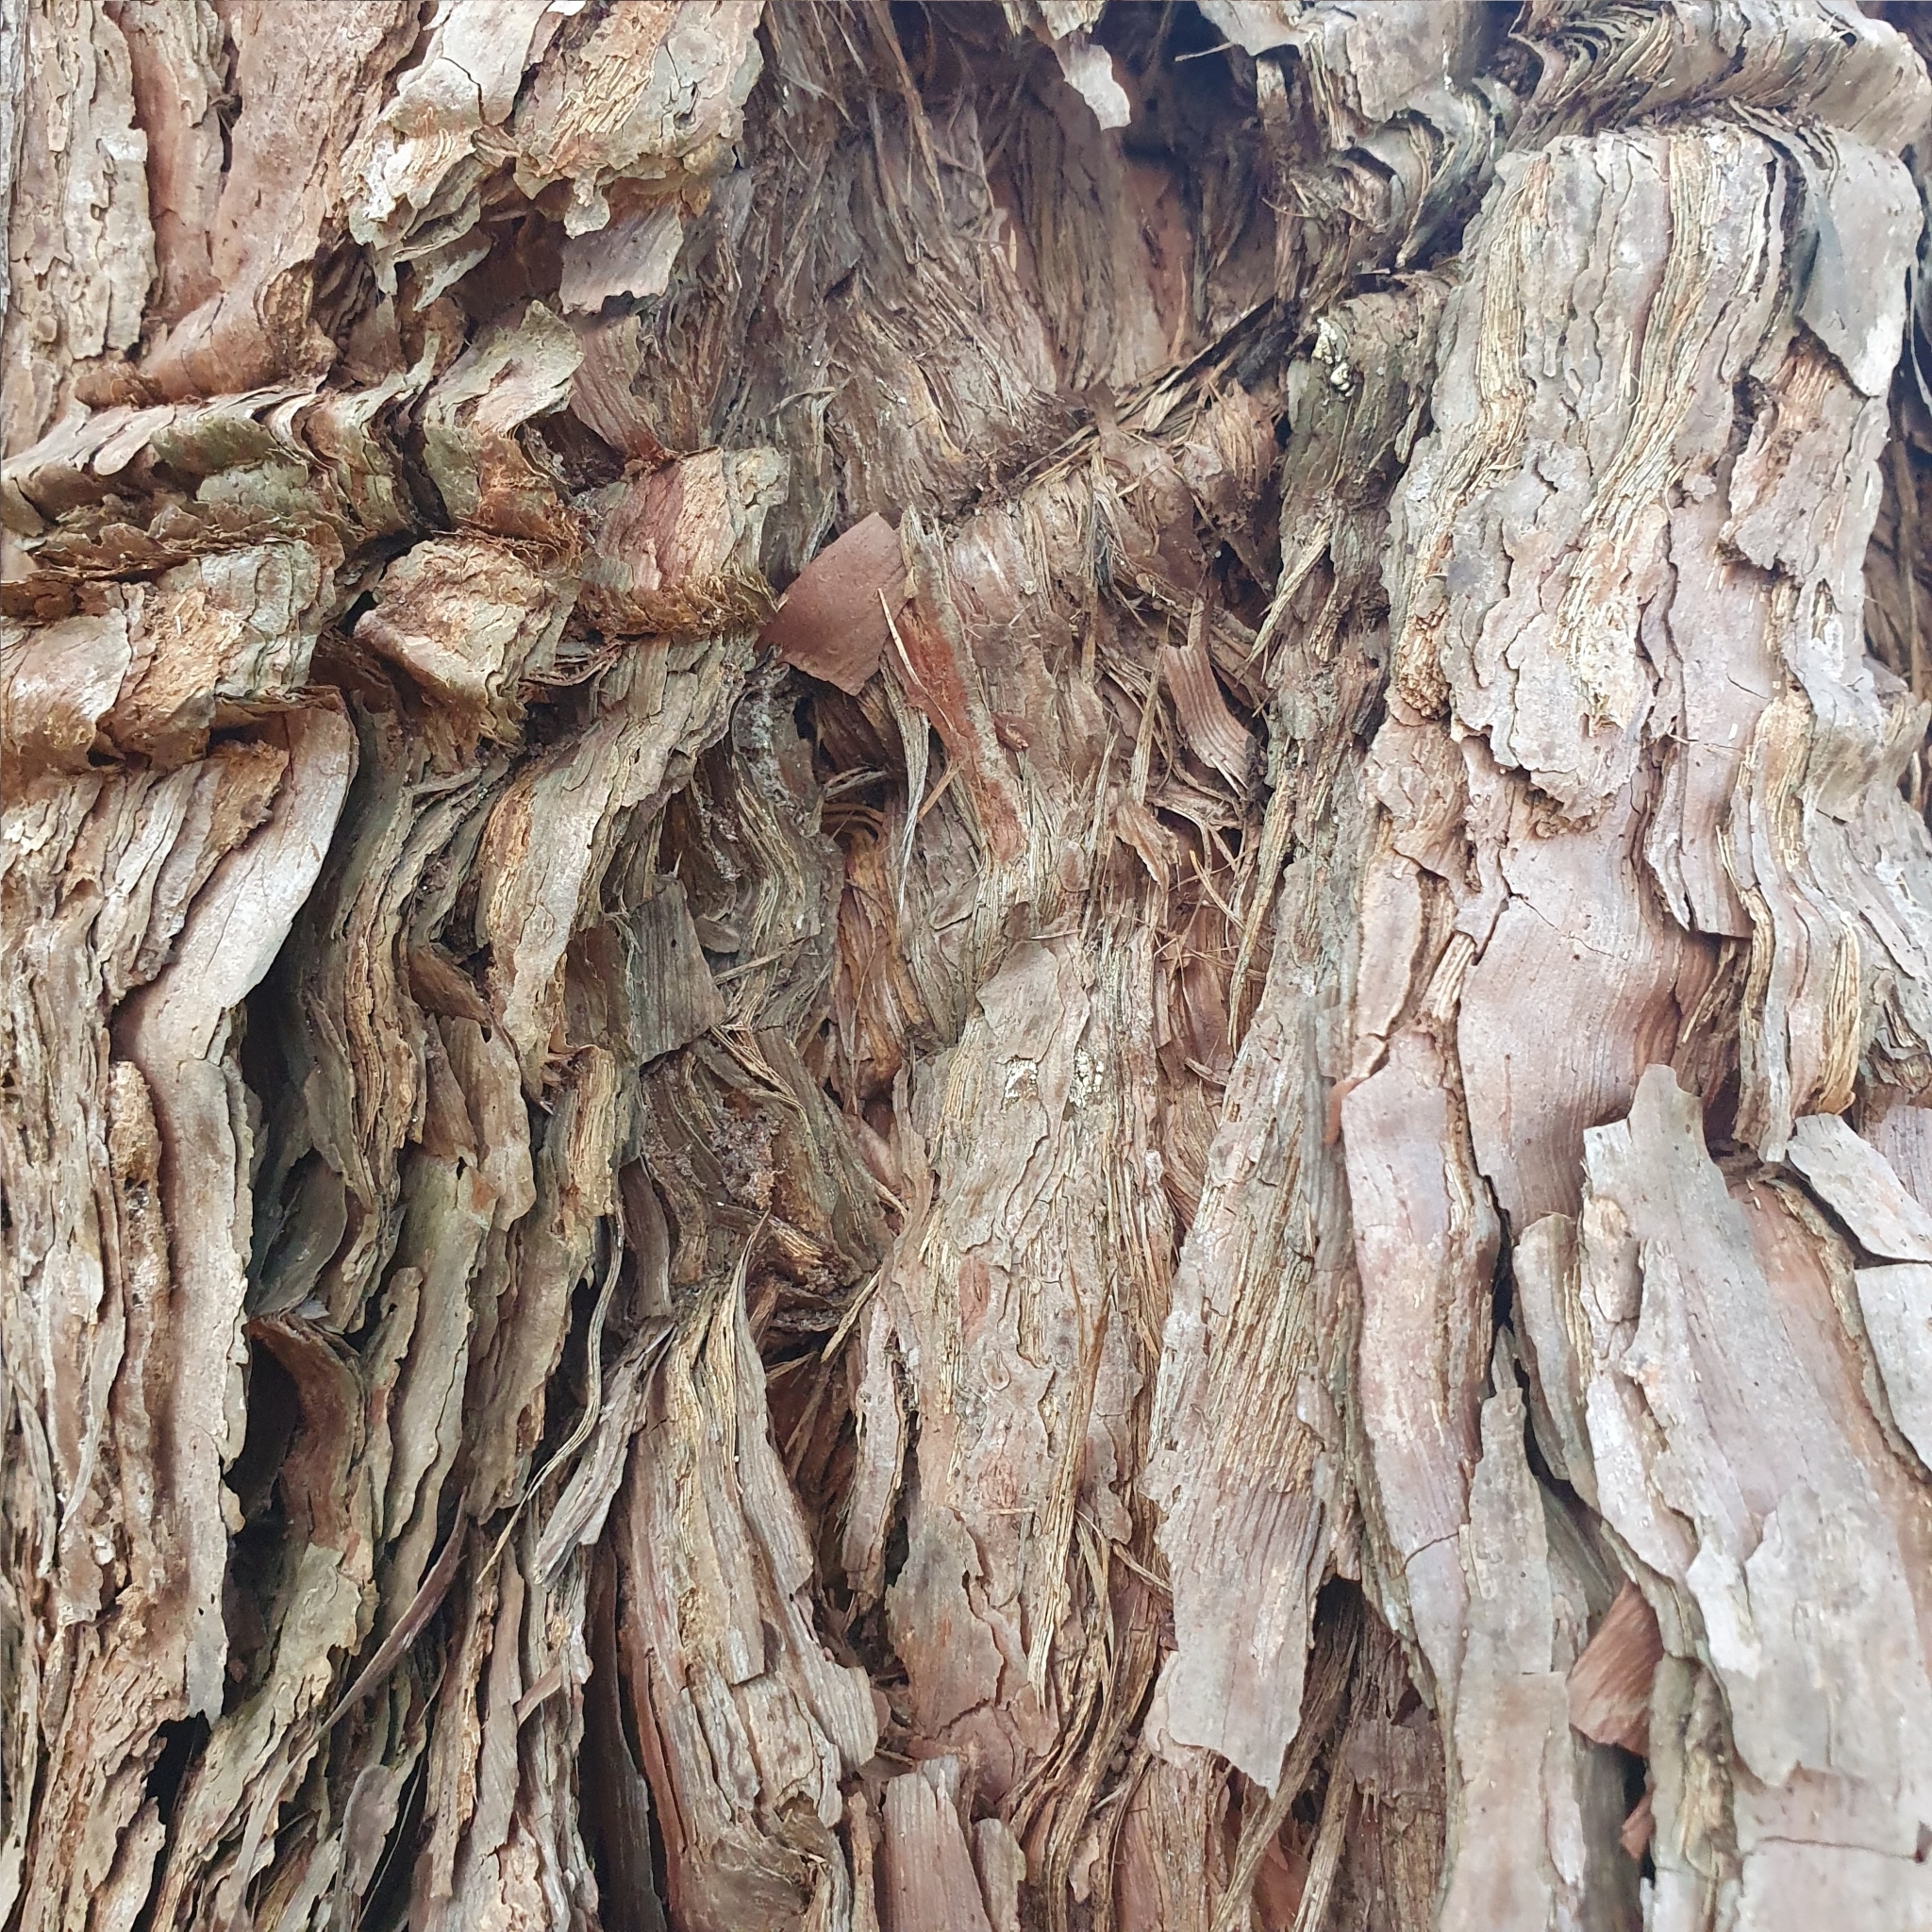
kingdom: Plantae
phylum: Tracheophyta
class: Magnoliopsida
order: Myrtales
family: Myrtaceae
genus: Syncarpia
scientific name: Syncarpia glomulifera
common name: Turpentine tree
